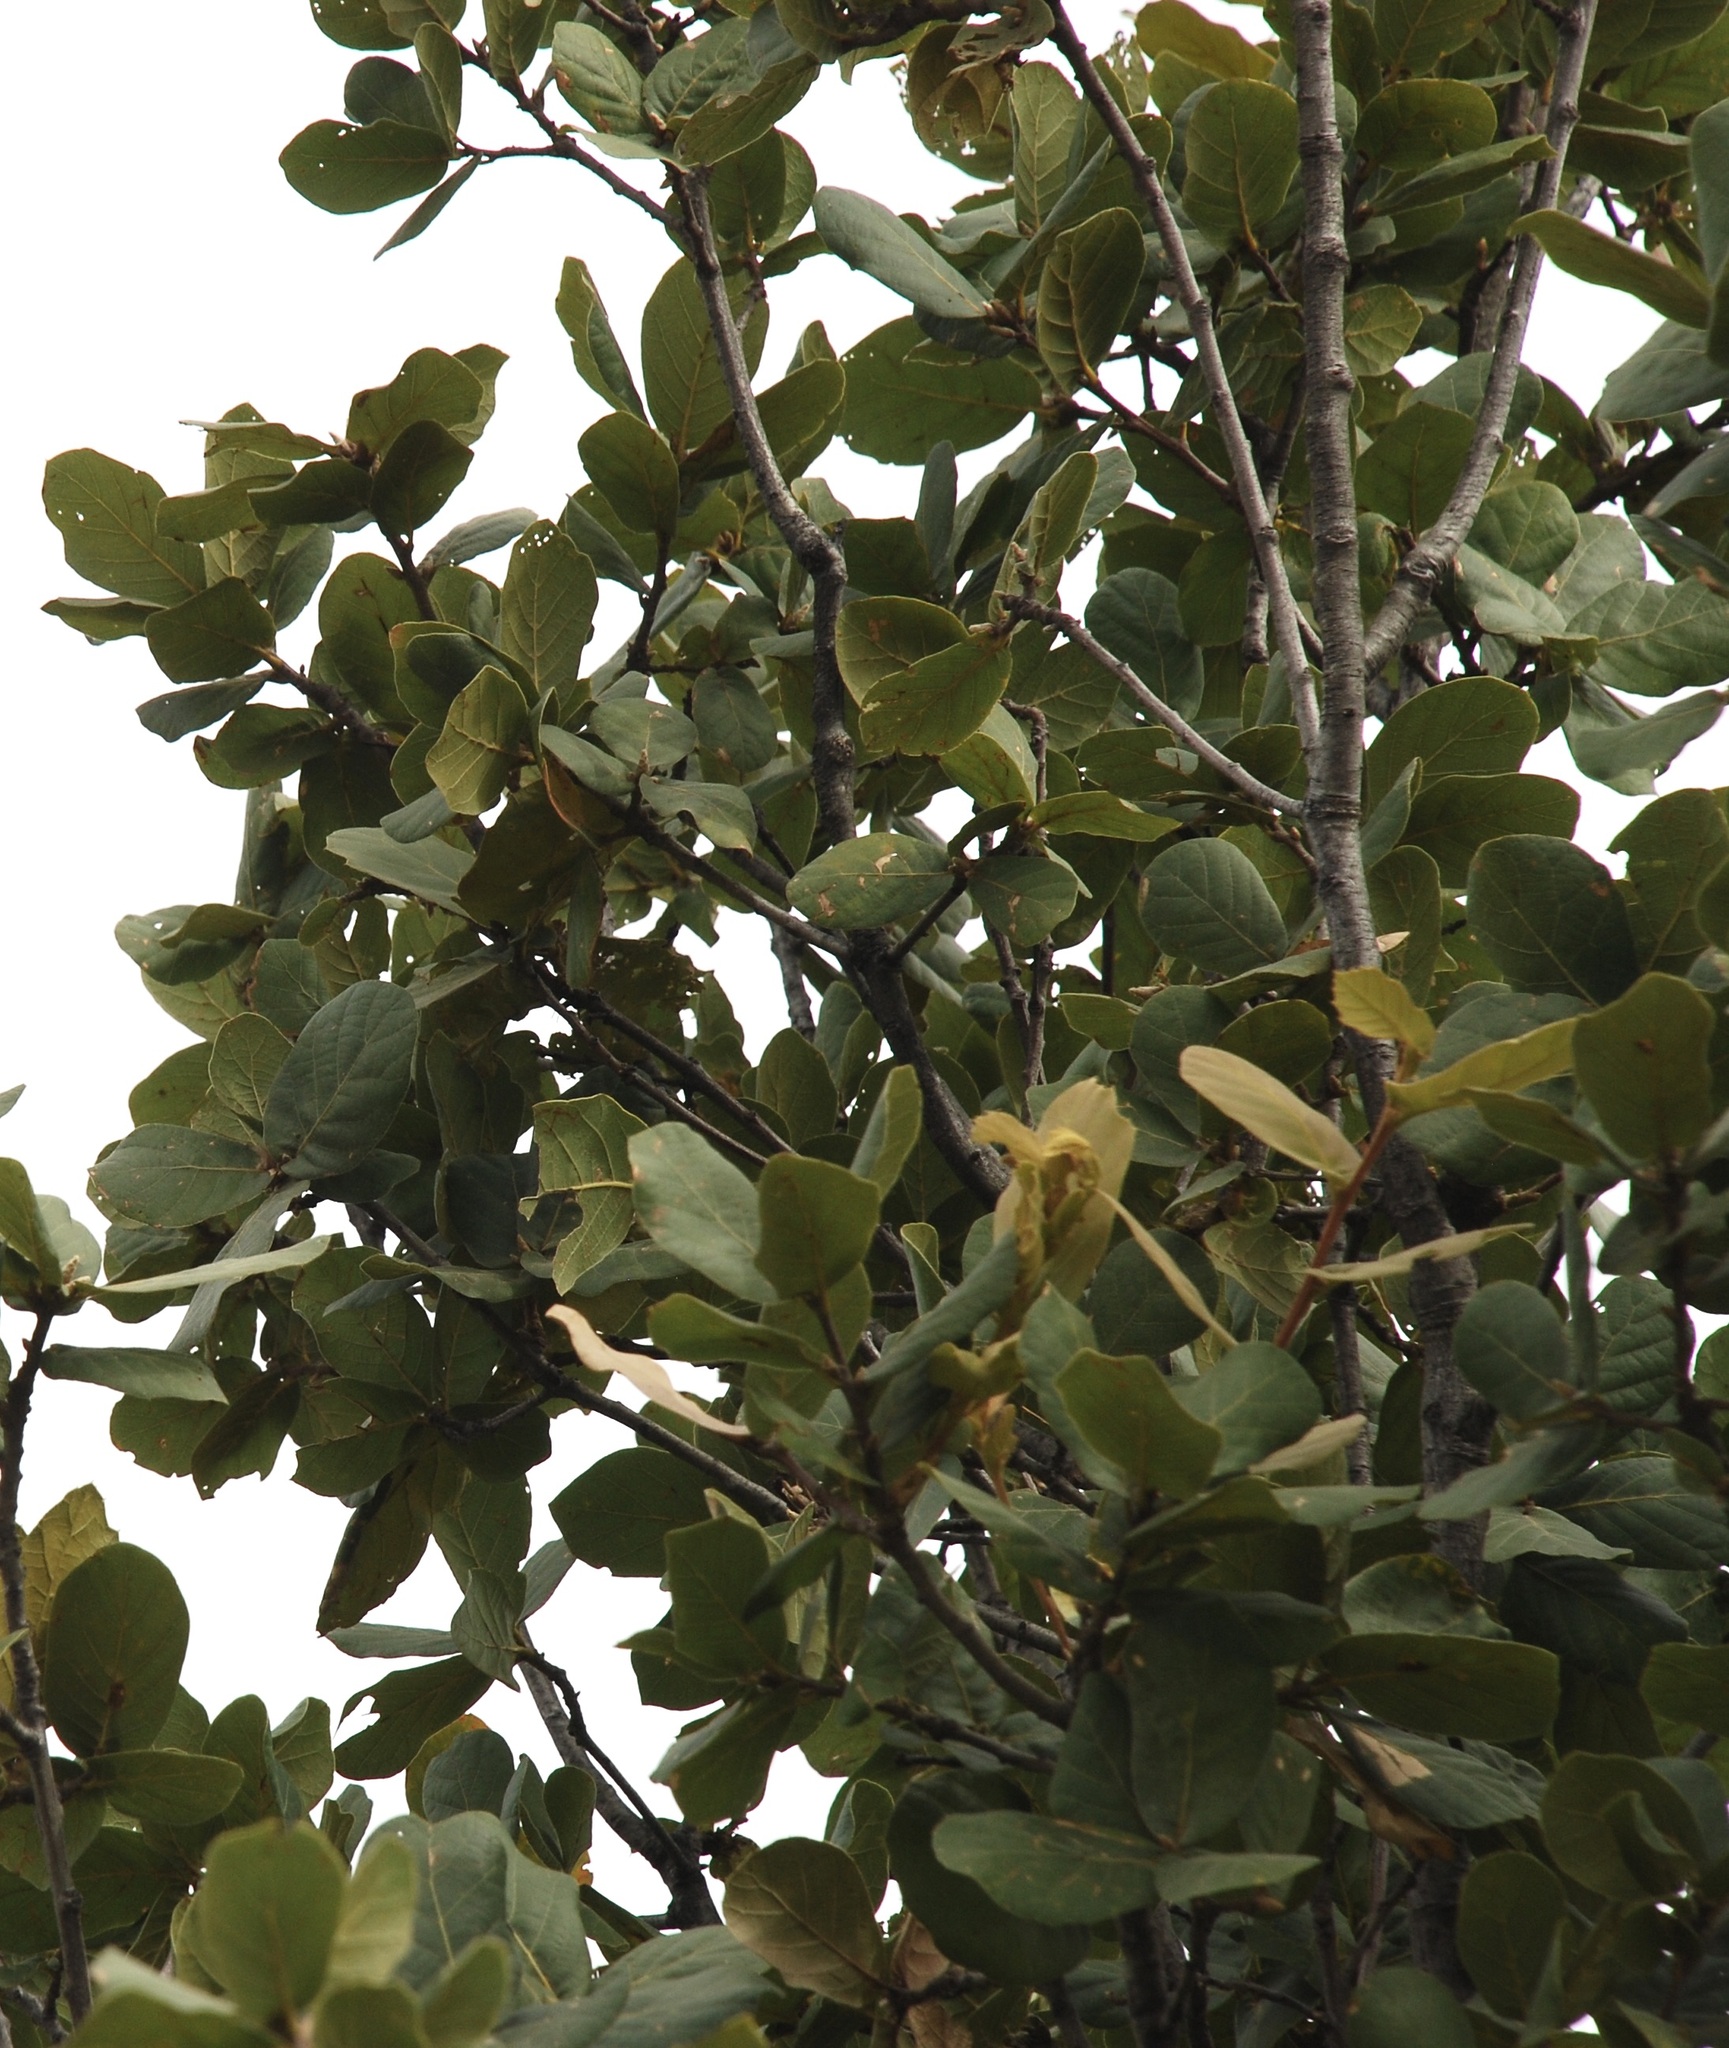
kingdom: Plantae
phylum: Tracheophyta
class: Magnoliopsida
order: Fagales
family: Fagaceae
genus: Quercus
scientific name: Quercus rugosa
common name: Netleaf oak
